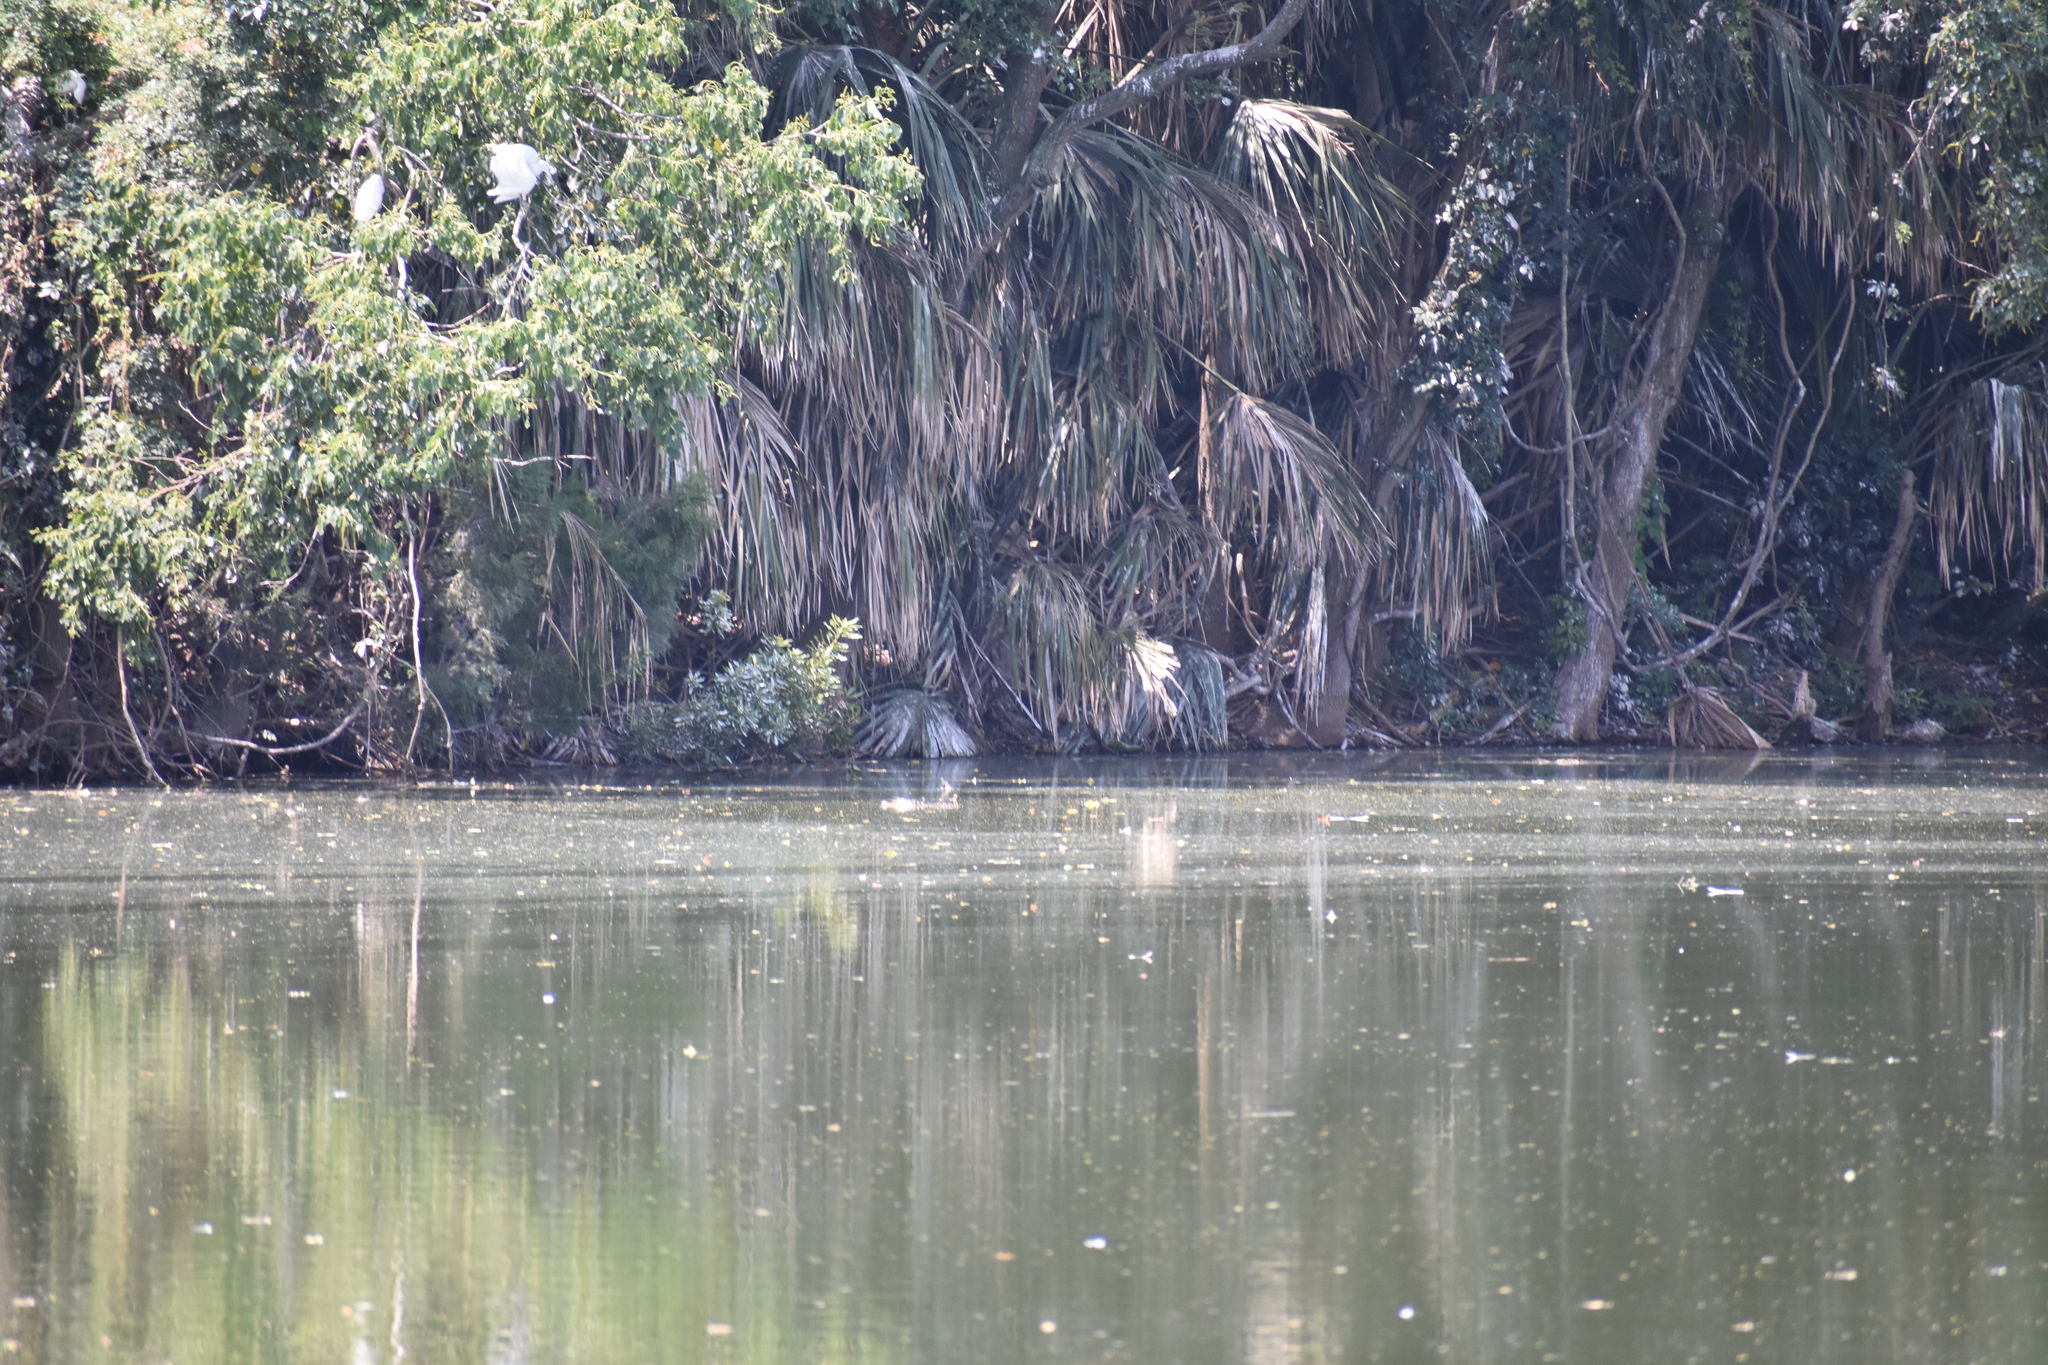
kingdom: Animalia
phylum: Chordata
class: Crocodylia
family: Alligatoridae
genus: Alligator
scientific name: Alligator mississippiensis
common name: American alligator
